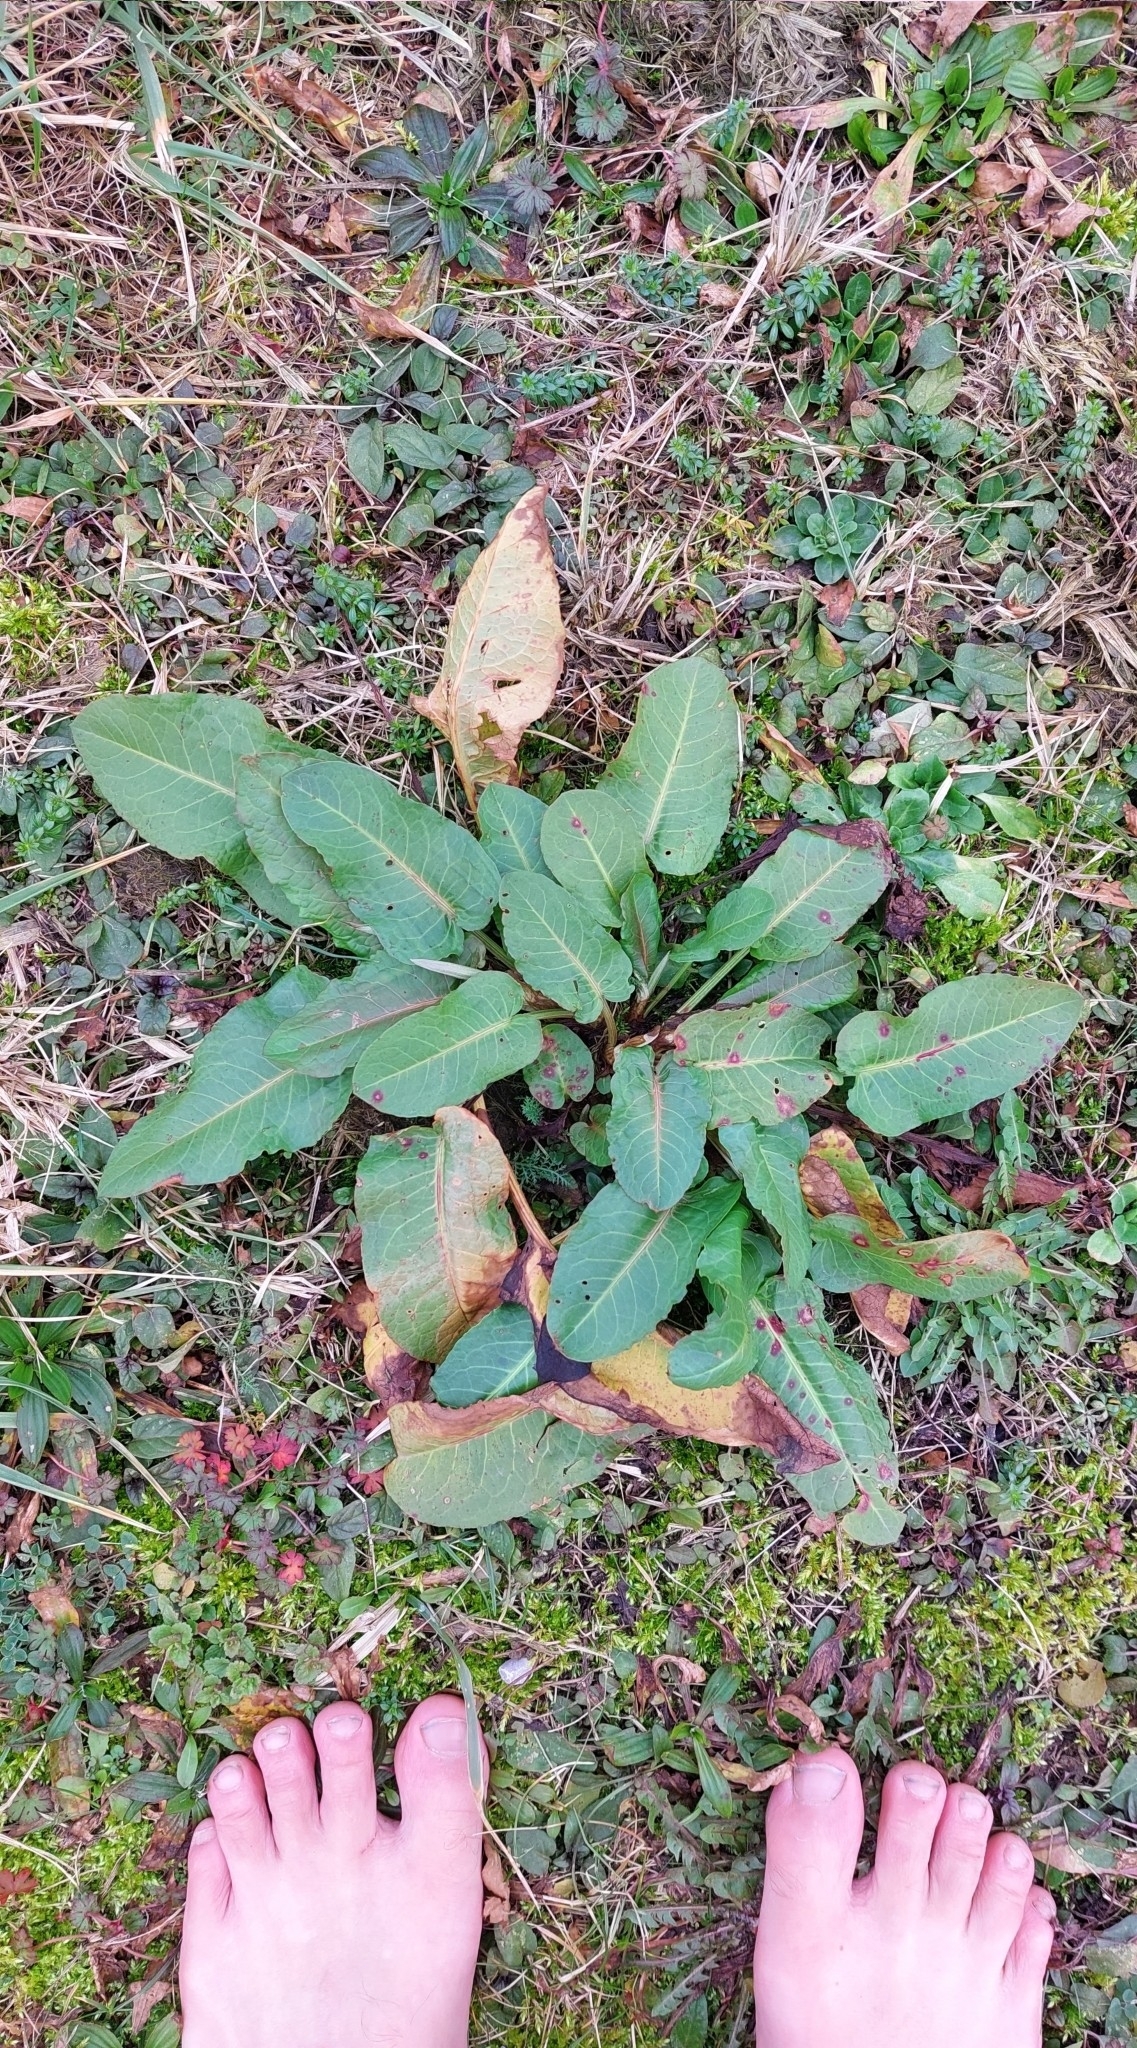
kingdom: Plantae
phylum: Tracheophyta
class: Magnoliopsida
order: Caryophyllales
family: Polygonaceae
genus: Rumex
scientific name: Rumex obtusifolius
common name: Bitter dock
